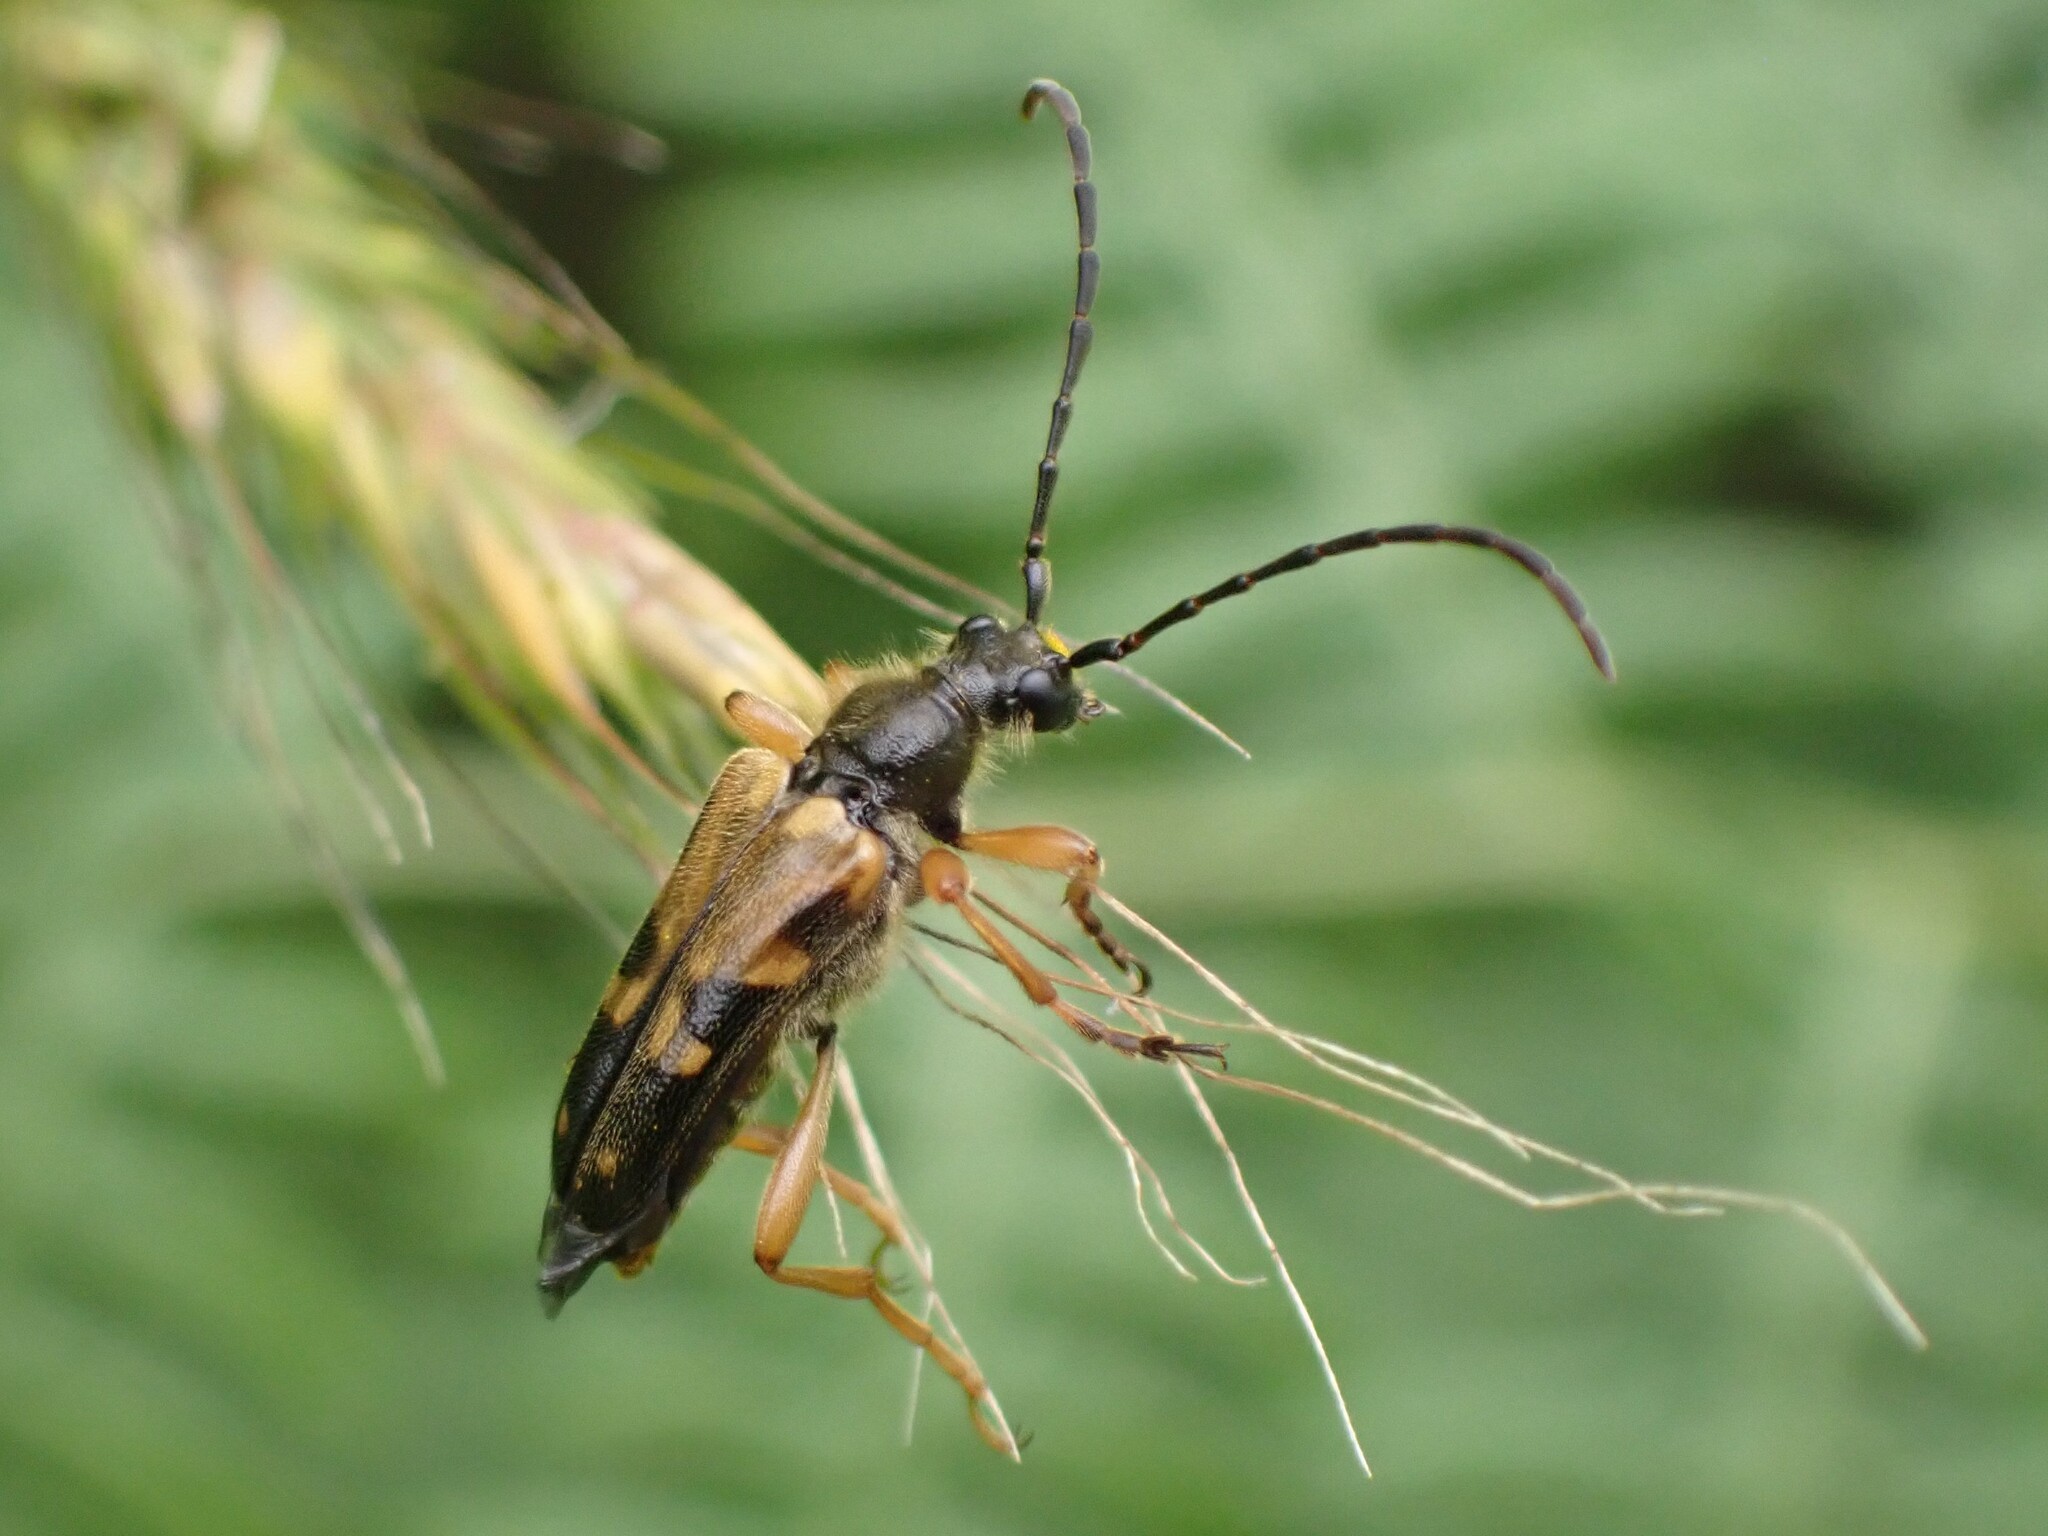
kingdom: Animalia
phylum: Arthropoda
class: Insecta
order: Coleoptera
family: Cerambycidae
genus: Xestoleptura
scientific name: Xestoleptura crassipes
